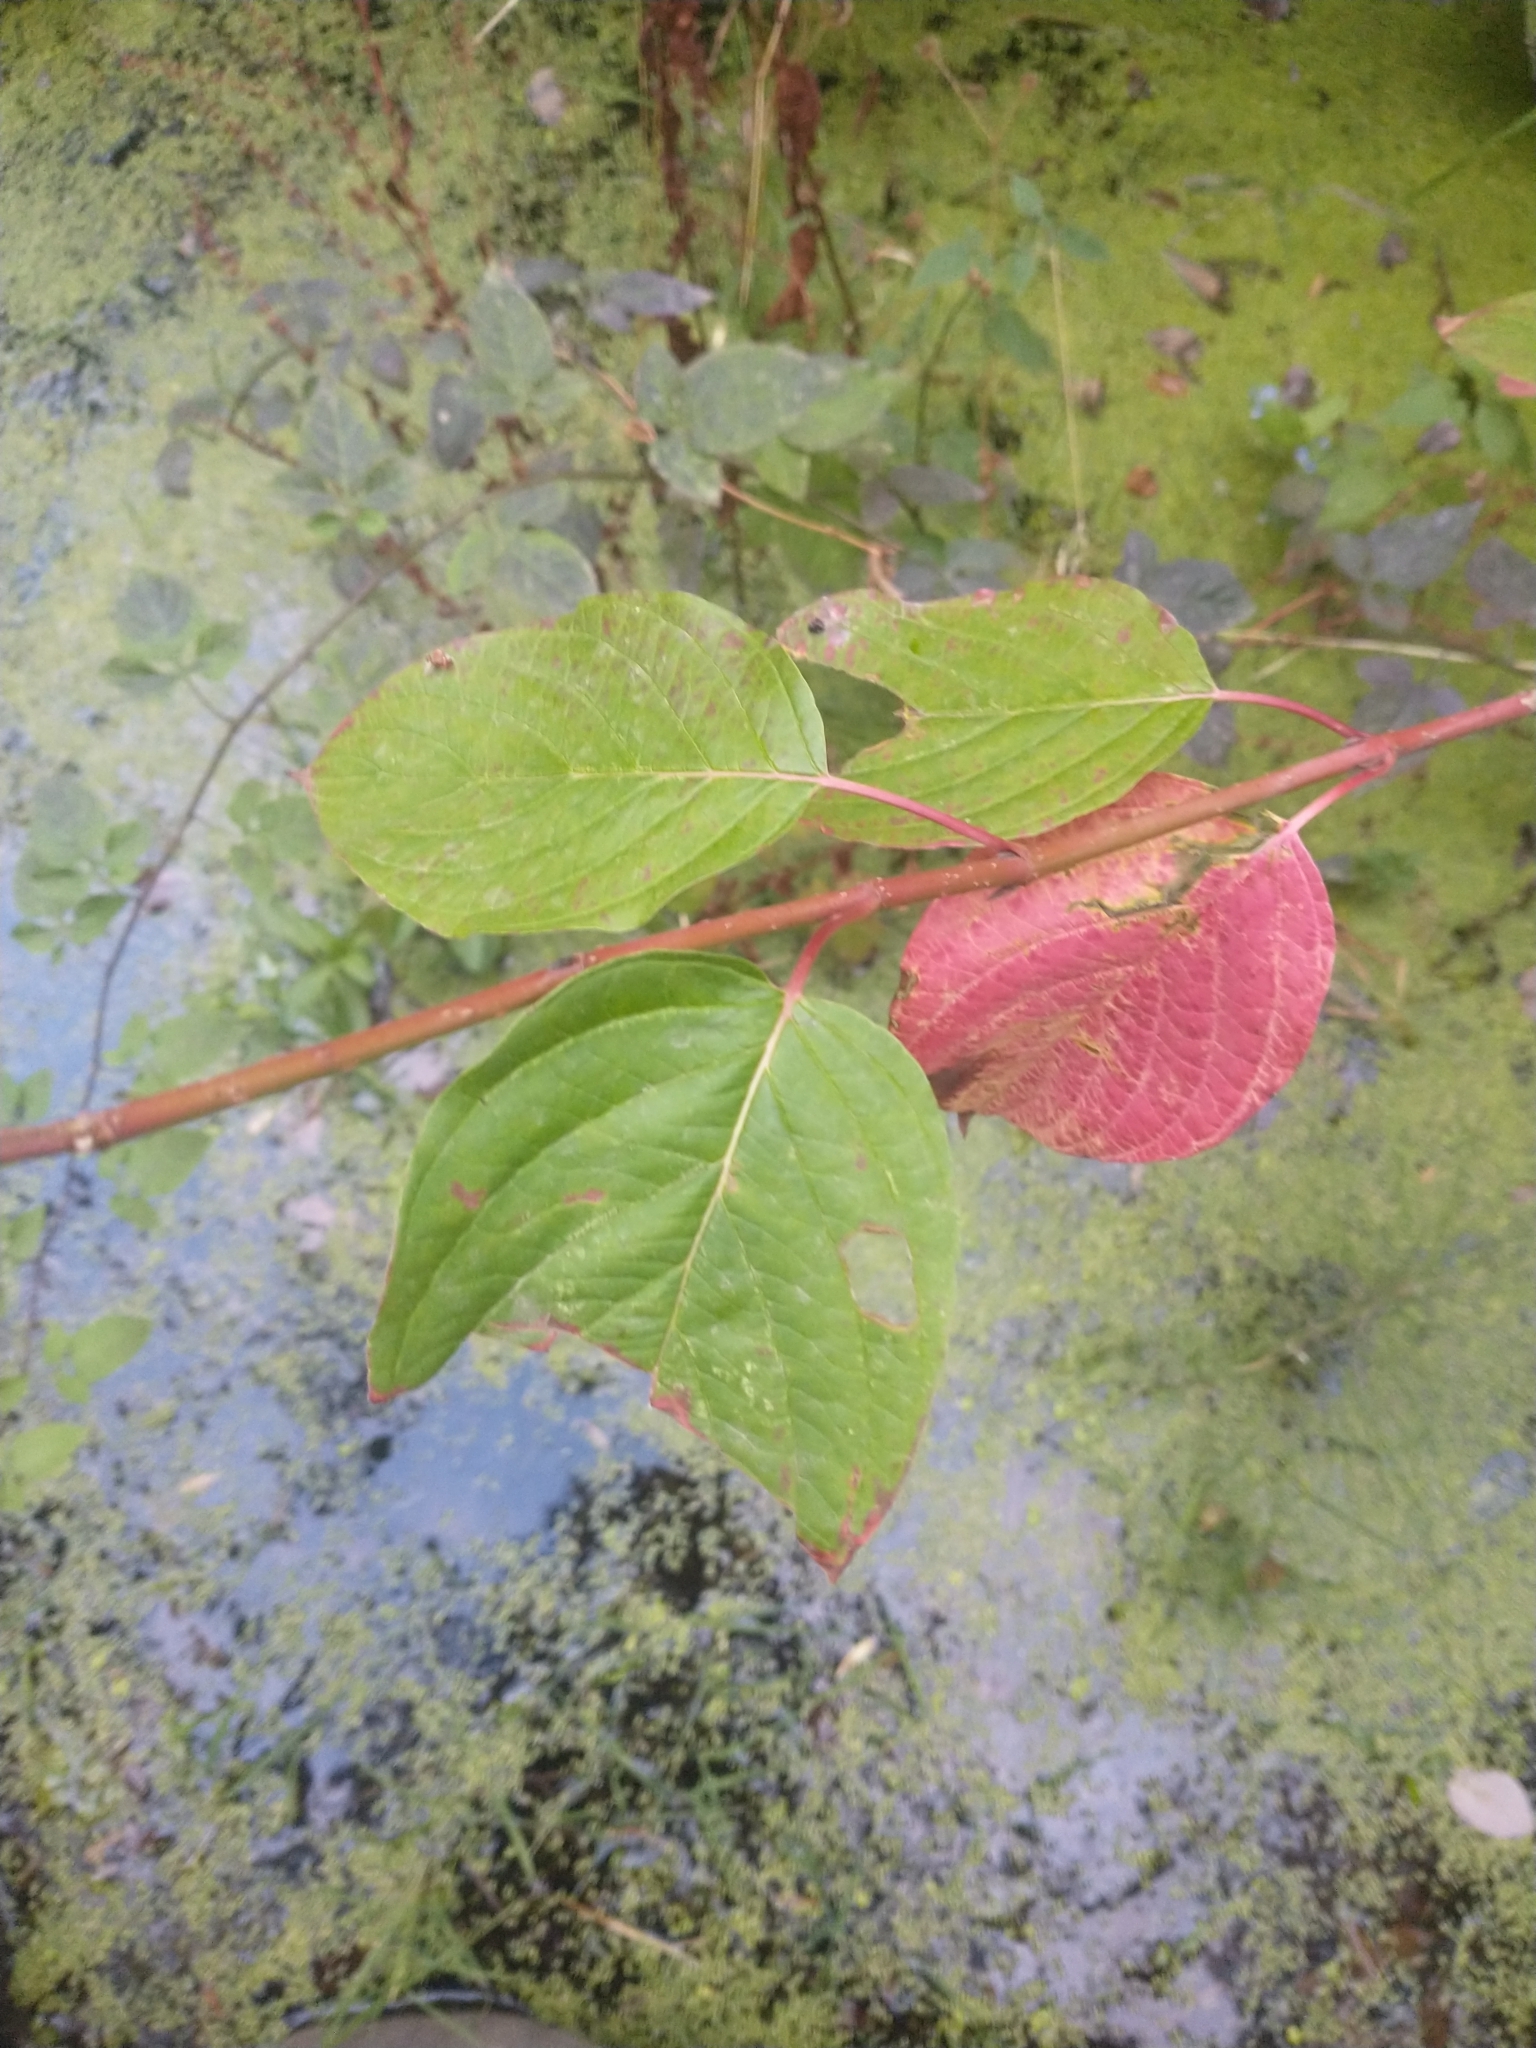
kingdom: Plantae
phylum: Tracheophyta
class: Magnoliopsida
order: Cornales
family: Cornaceae
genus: Cornus
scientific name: Cornus sericea
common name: Red-osier dogwood
